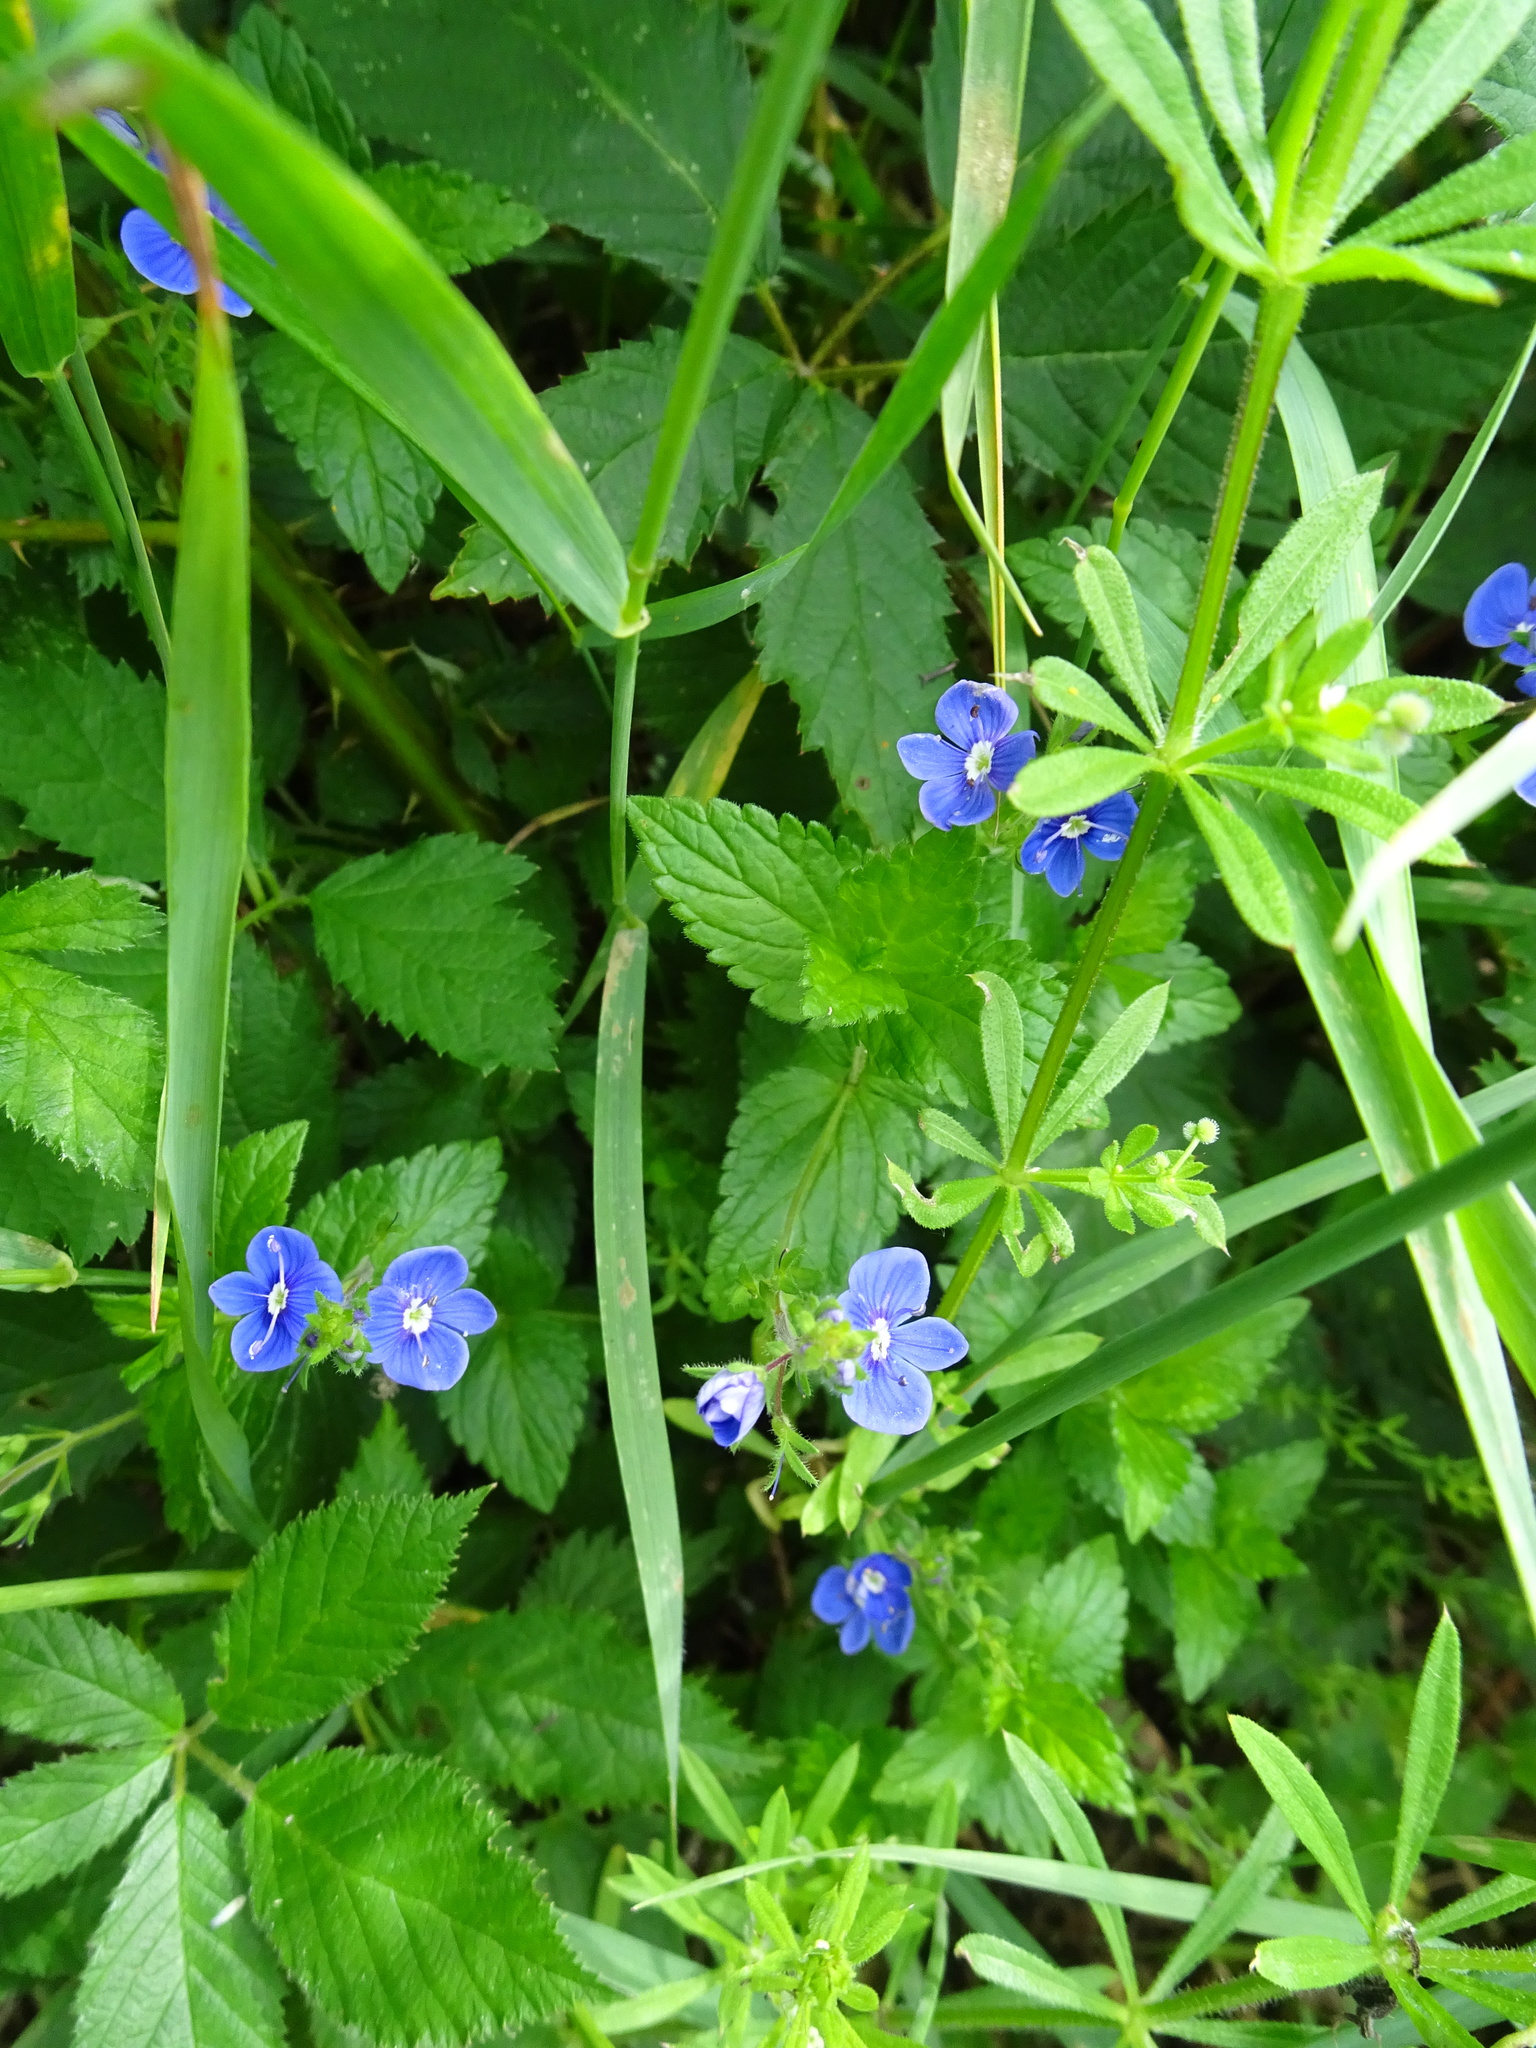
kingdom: Plantae
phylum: Tracheophyta
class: Magnoliopsida
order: Lamiales
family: Plantaginaceae
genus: Veronica
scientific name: Veronica chamaedrys
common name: Germander speedwell
